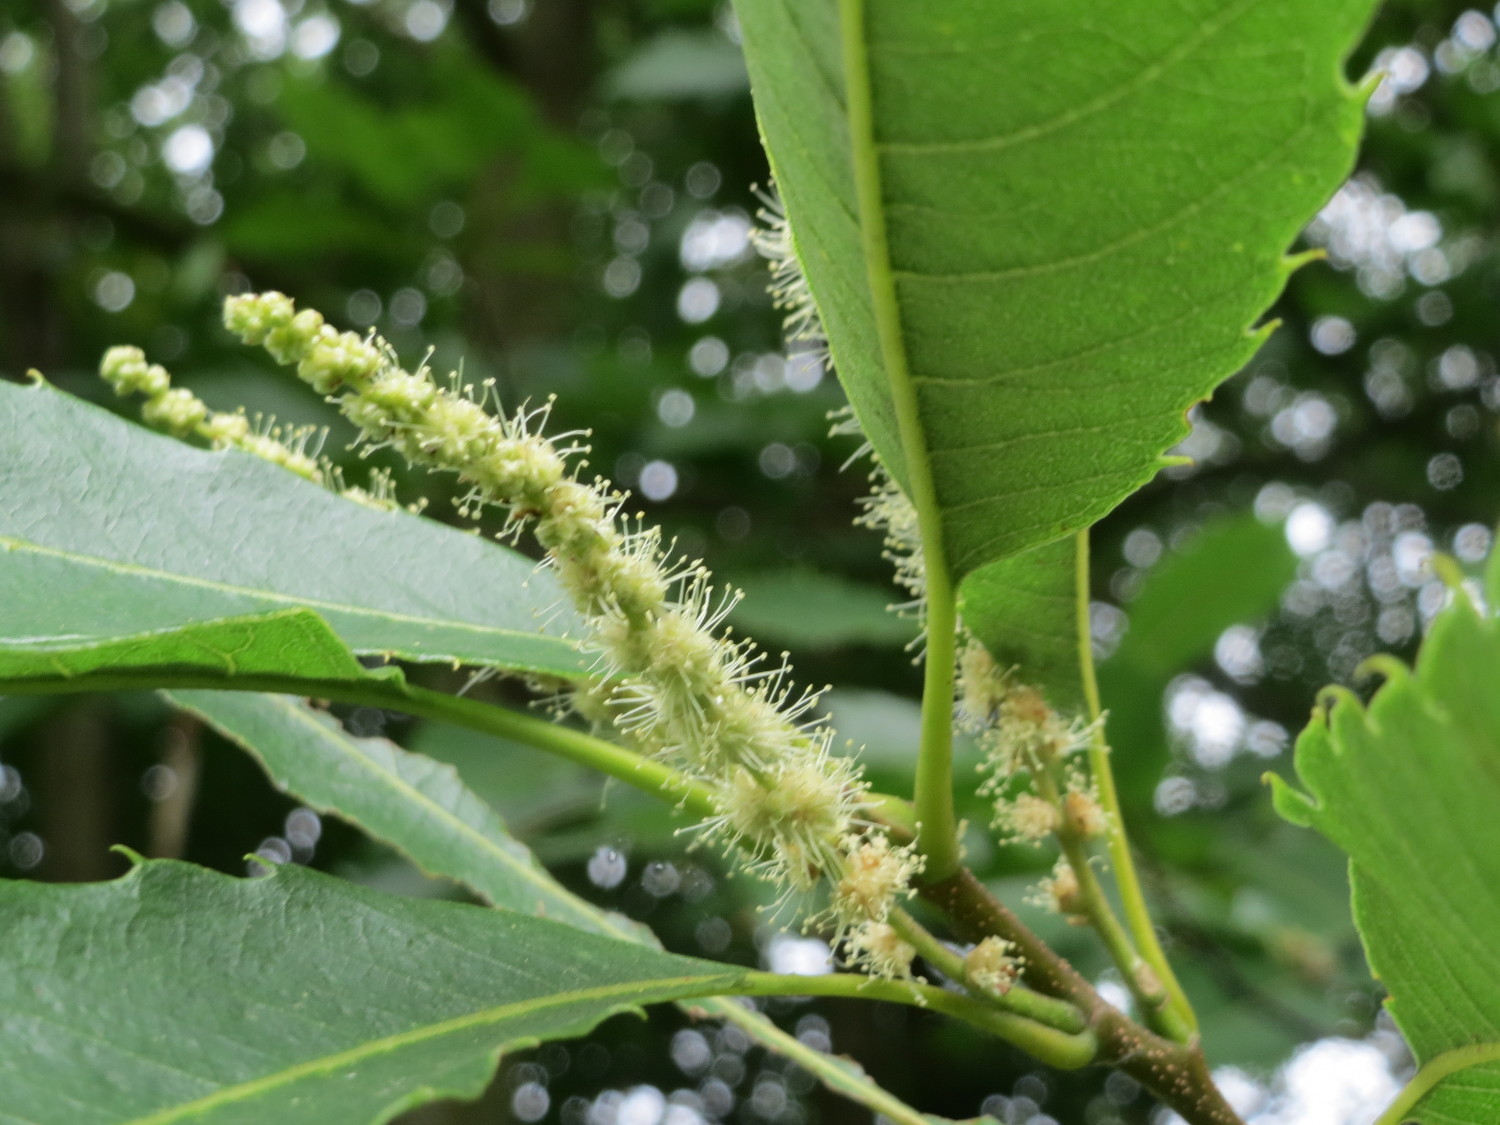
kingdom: Plantae
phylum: Tracheophyta
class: Magnoliopsida
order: Fagales
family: Fagaceae
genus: Castanea
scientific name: Castanea sativa
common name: Sweet chestnut
